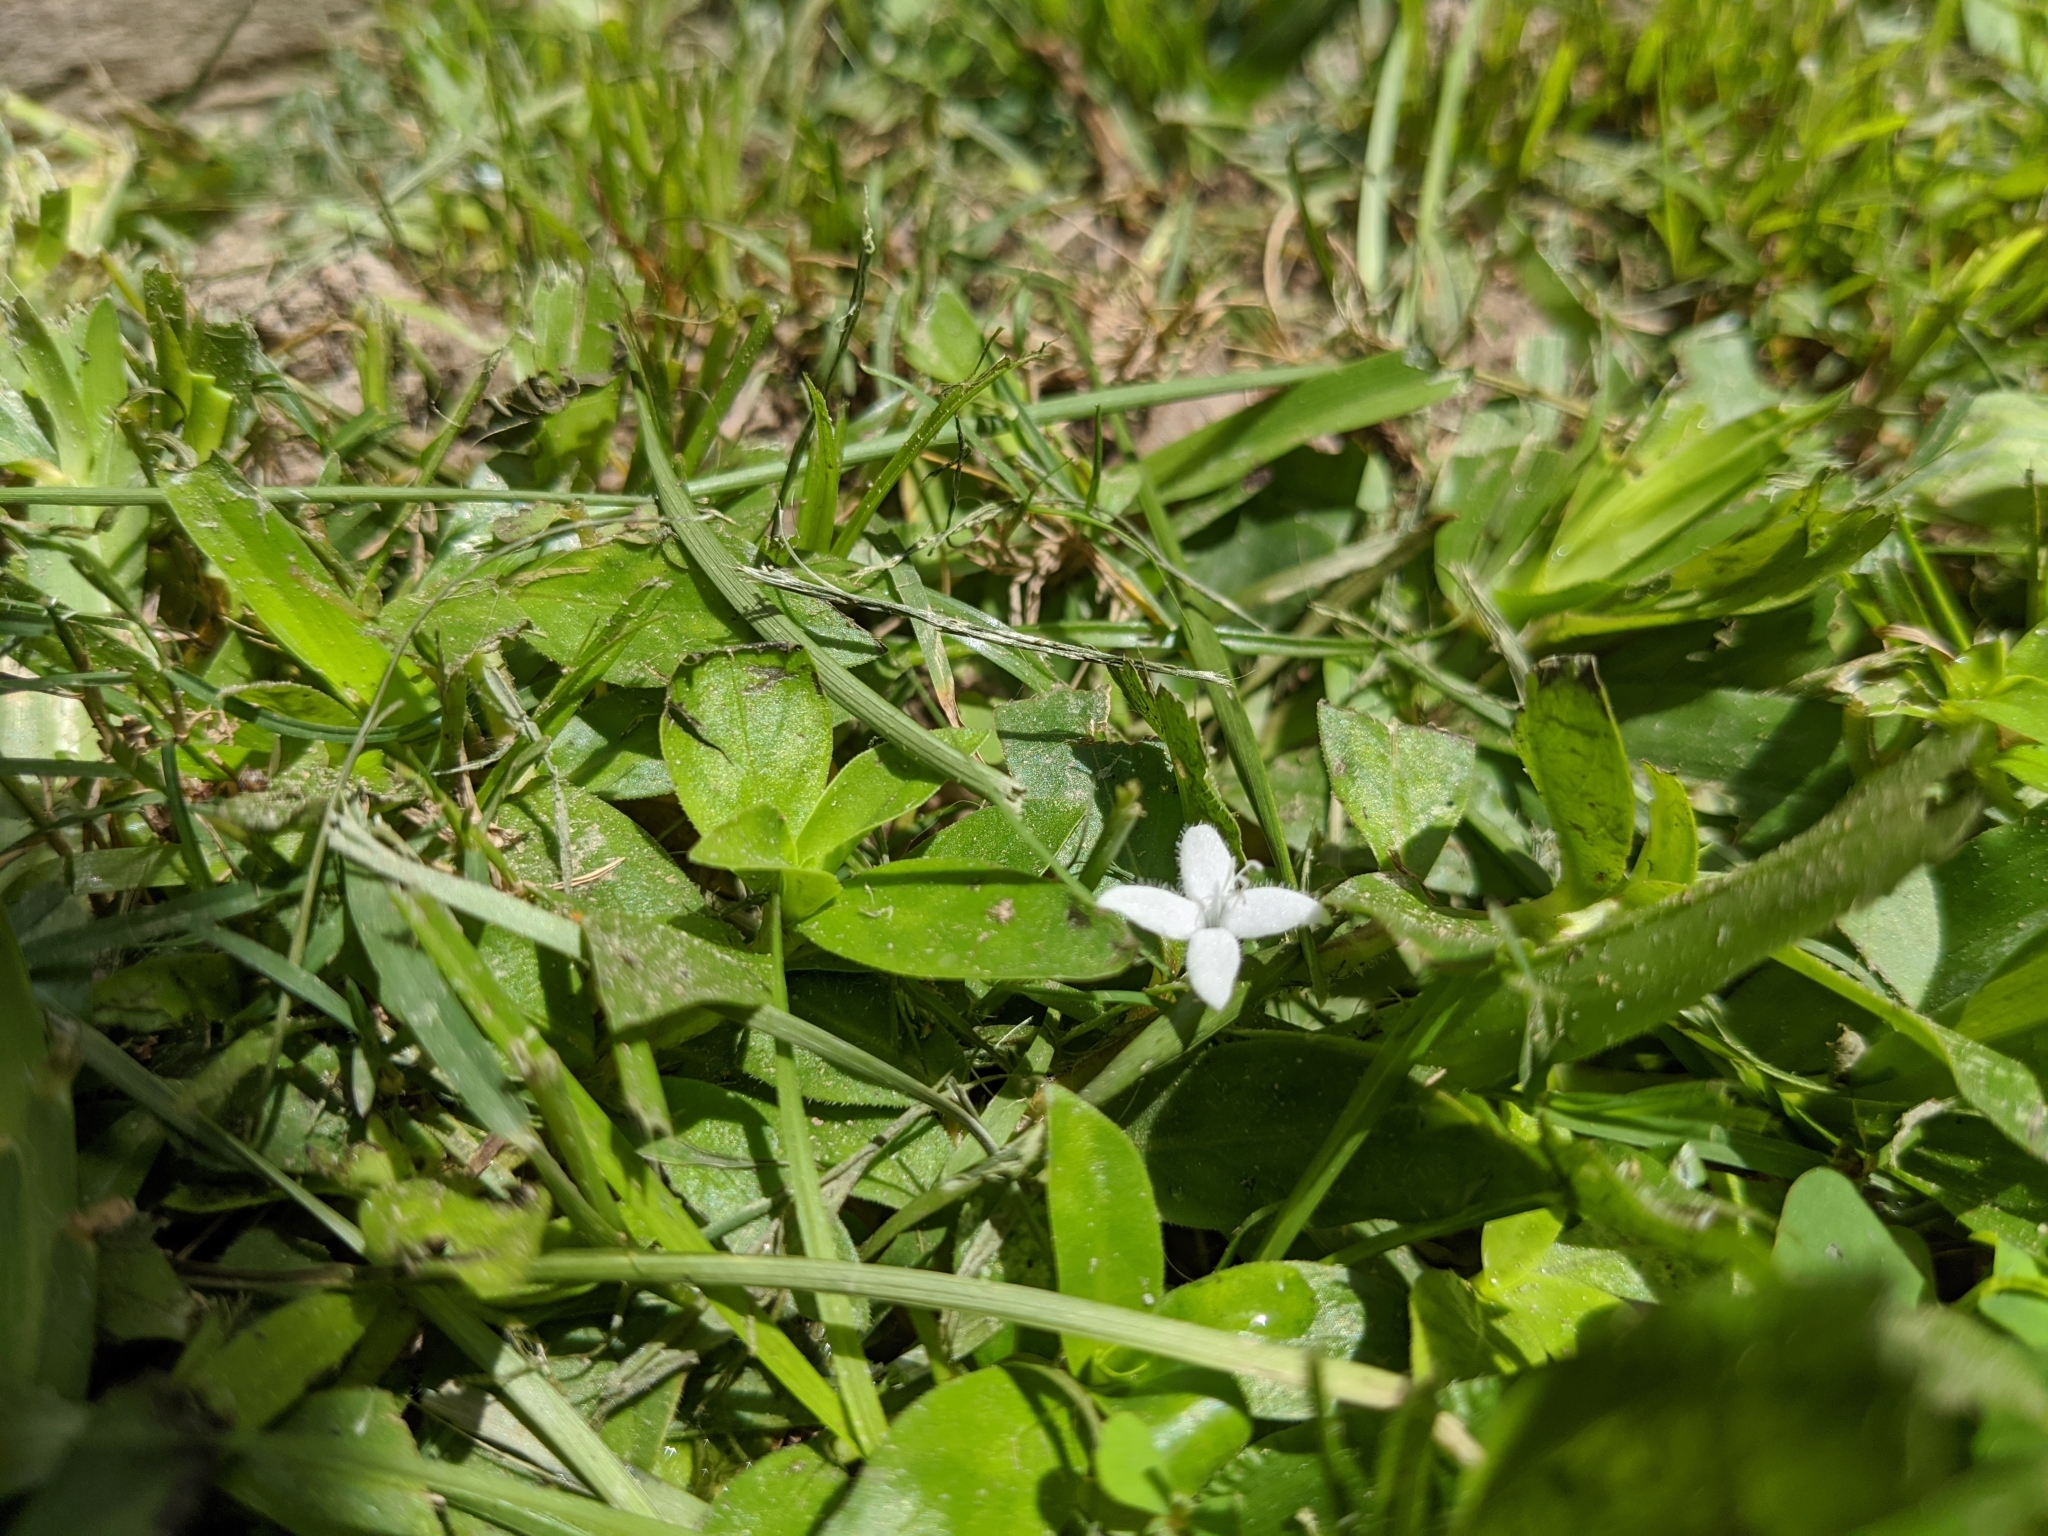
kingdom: Plantae
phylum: Tracheophyta
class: Magnoliopsida
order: Gentianales
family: Rubiaceae
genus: Diodia
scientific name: Diodia virginiana
